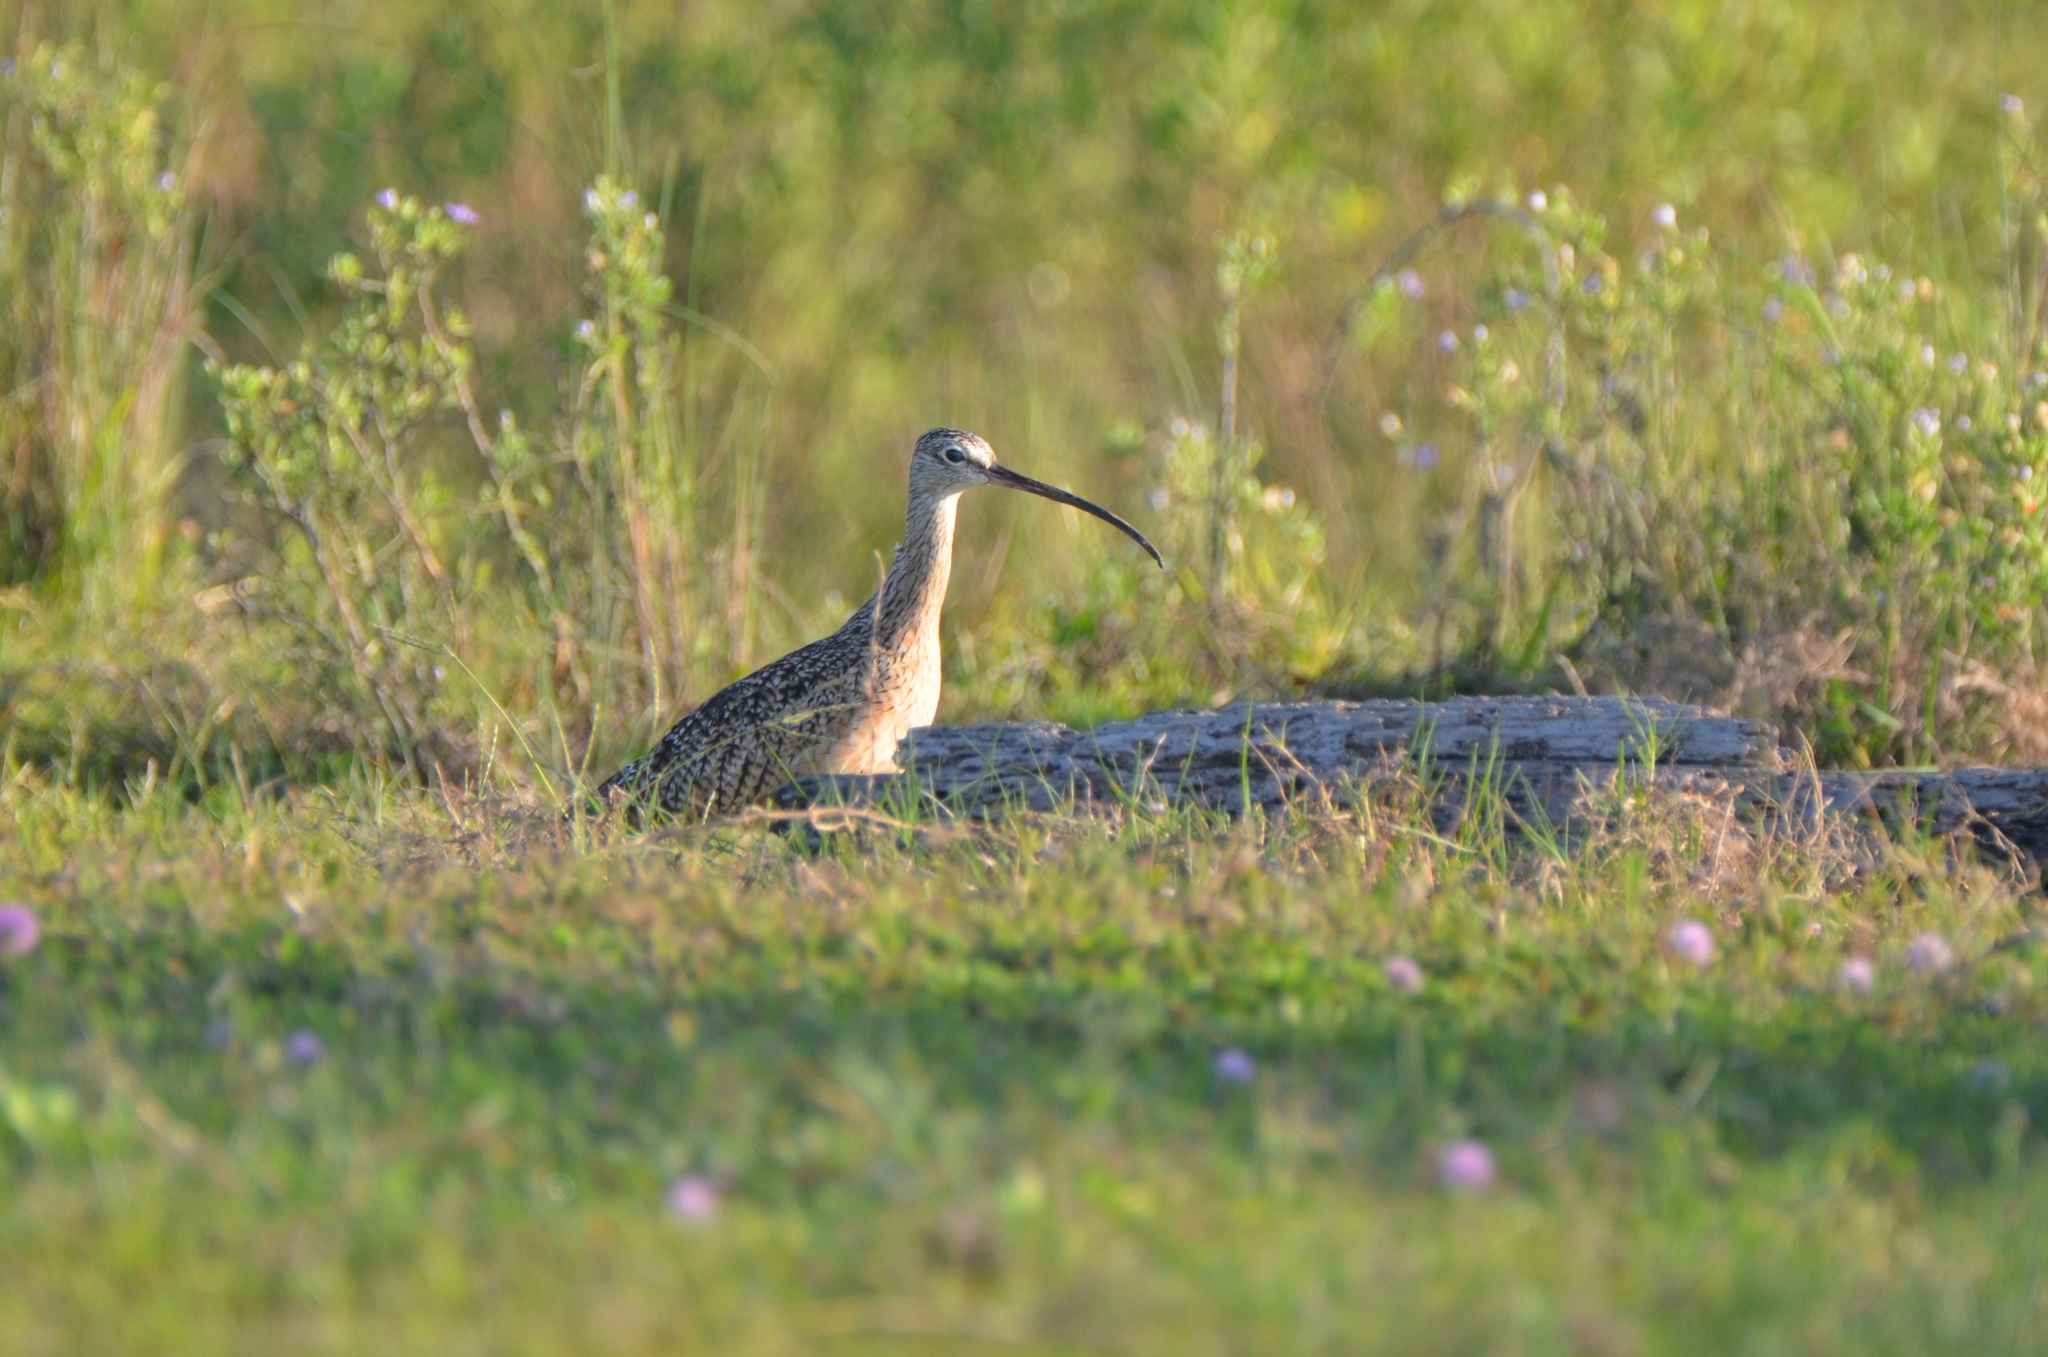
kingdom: Animalia
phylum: Chordata
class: Aves
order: Charadriiformes
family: Scolopacidae
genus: Numenius
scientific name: Numenius americanus
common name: Long-billed curlew
